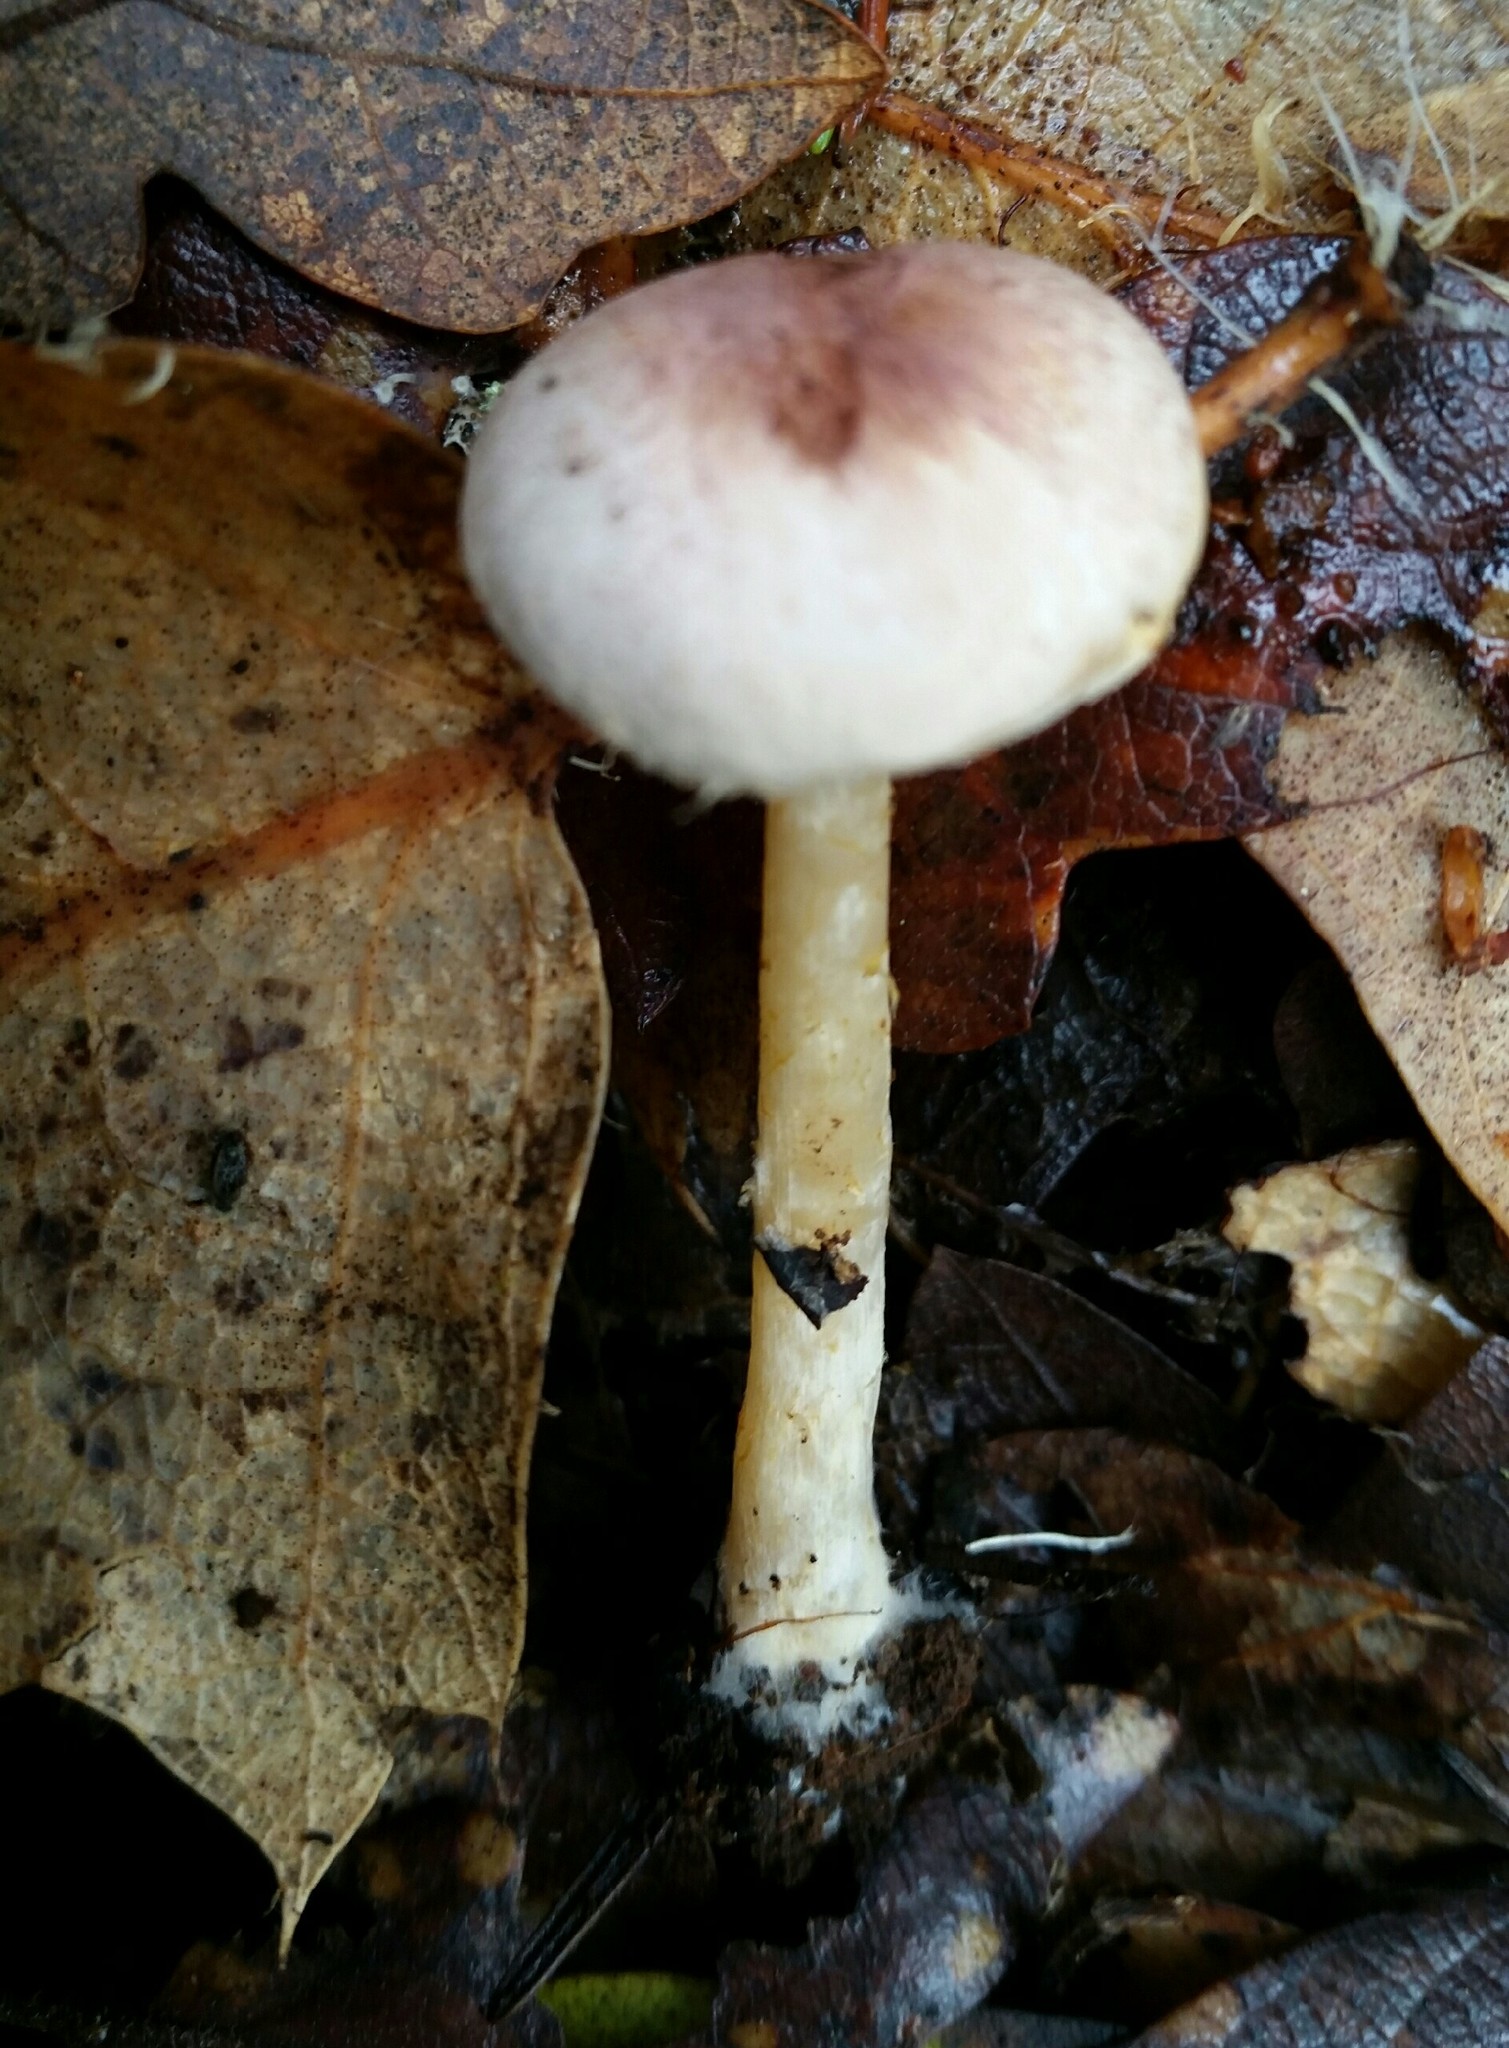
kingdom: Fungi
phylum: Basidiomycota
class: Agaricomycetes
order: Agaricales
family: Agaricaceae
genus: Agaricus
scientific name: Agaricus diminutivus
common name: Diminutive agaricus
